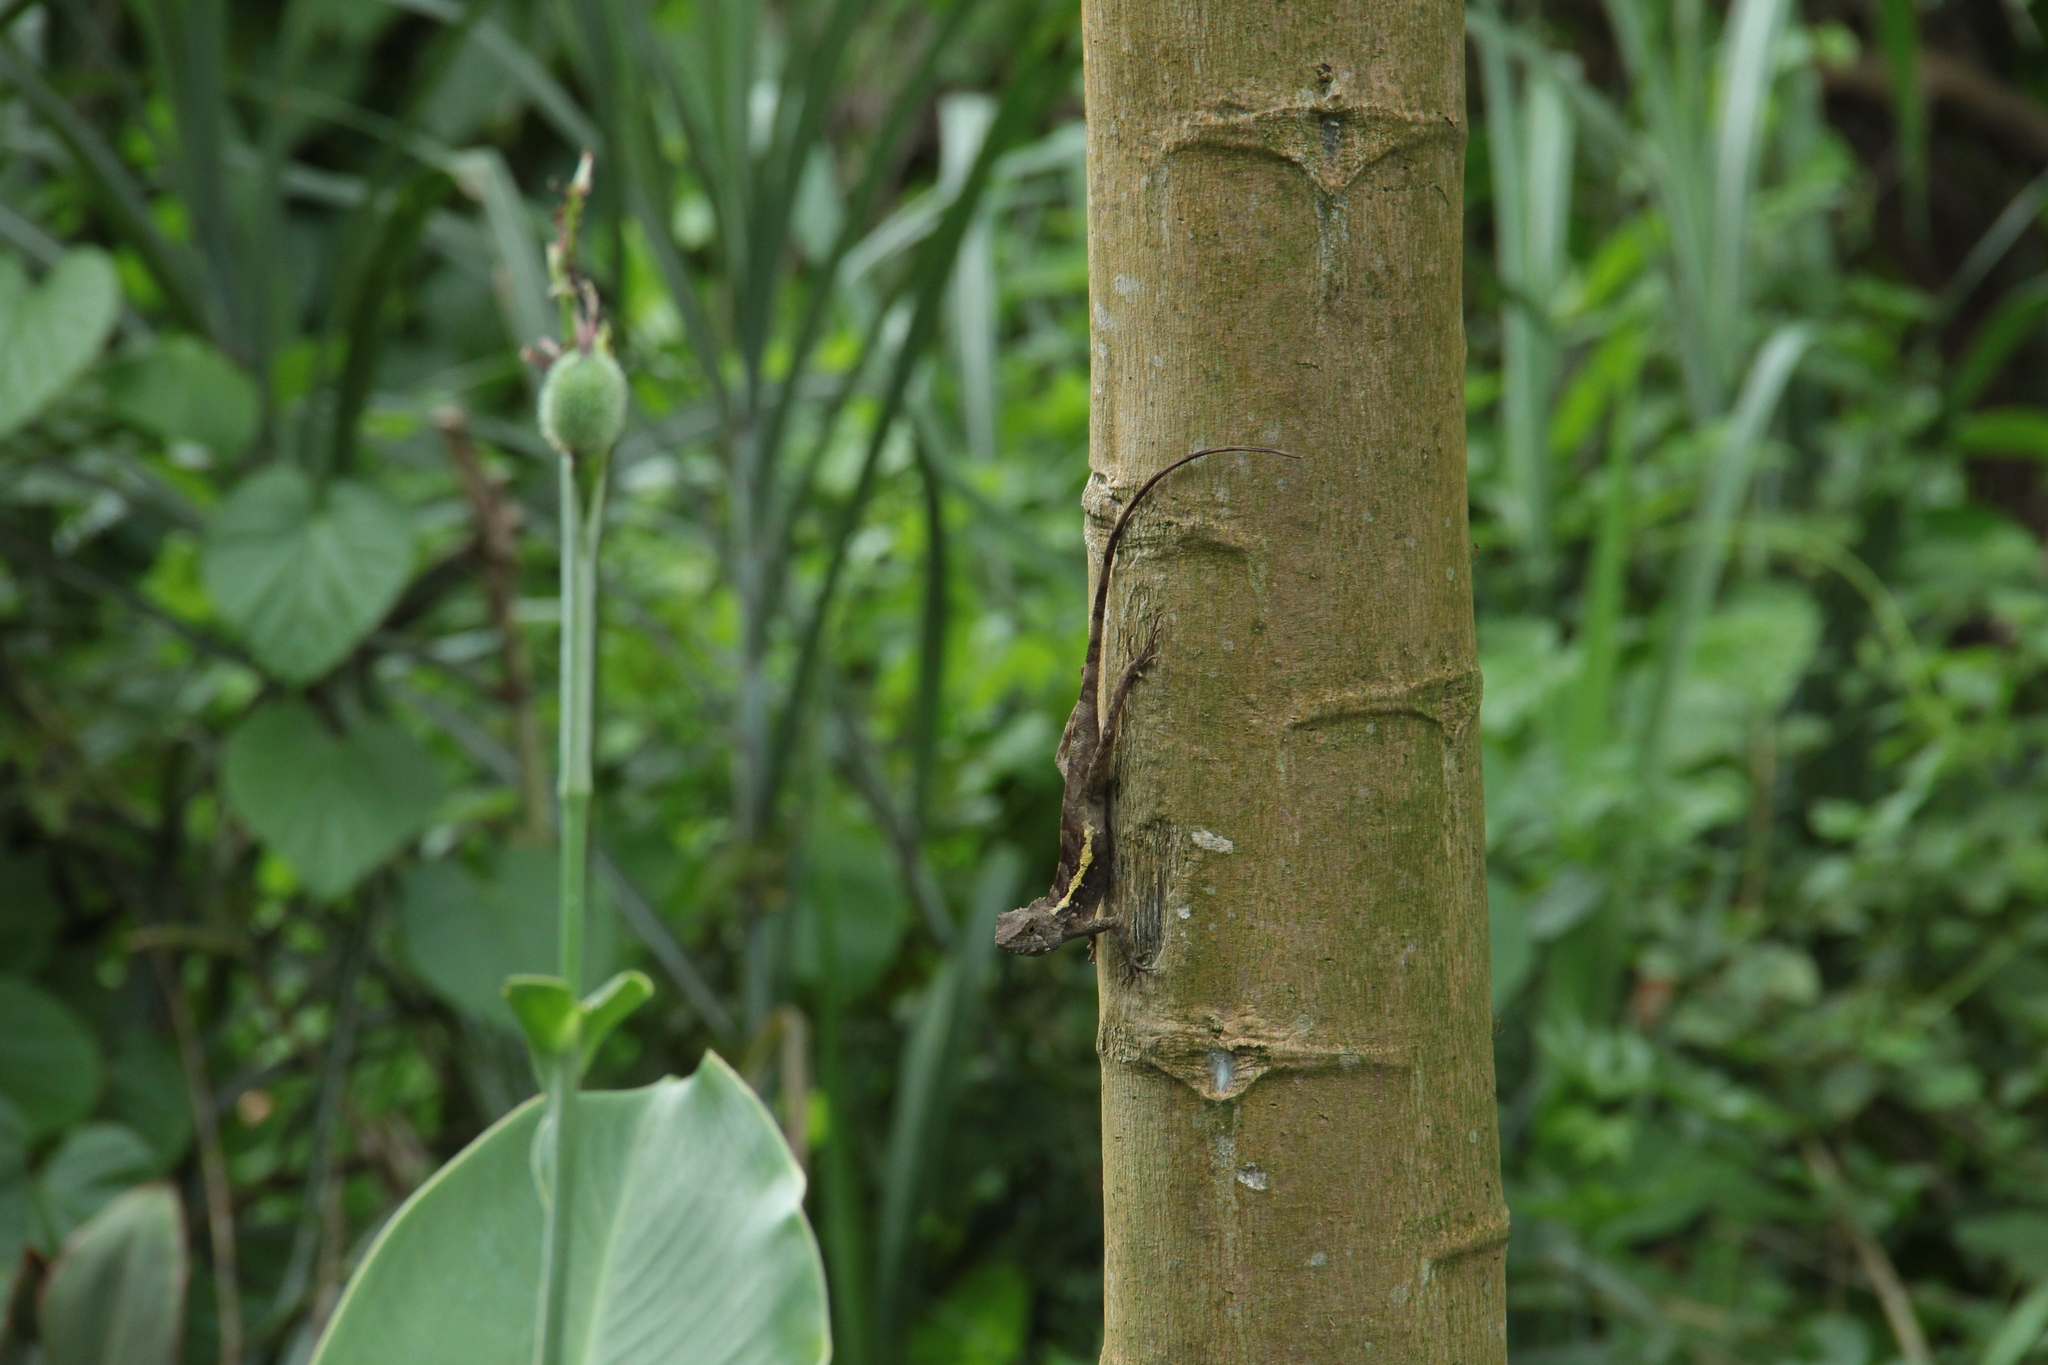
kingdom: Animalia
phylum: Chordata
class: Squamata
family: Agamidae
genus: Diploderma
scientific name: Diploderma swinhonis
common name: Taiwan japalure
